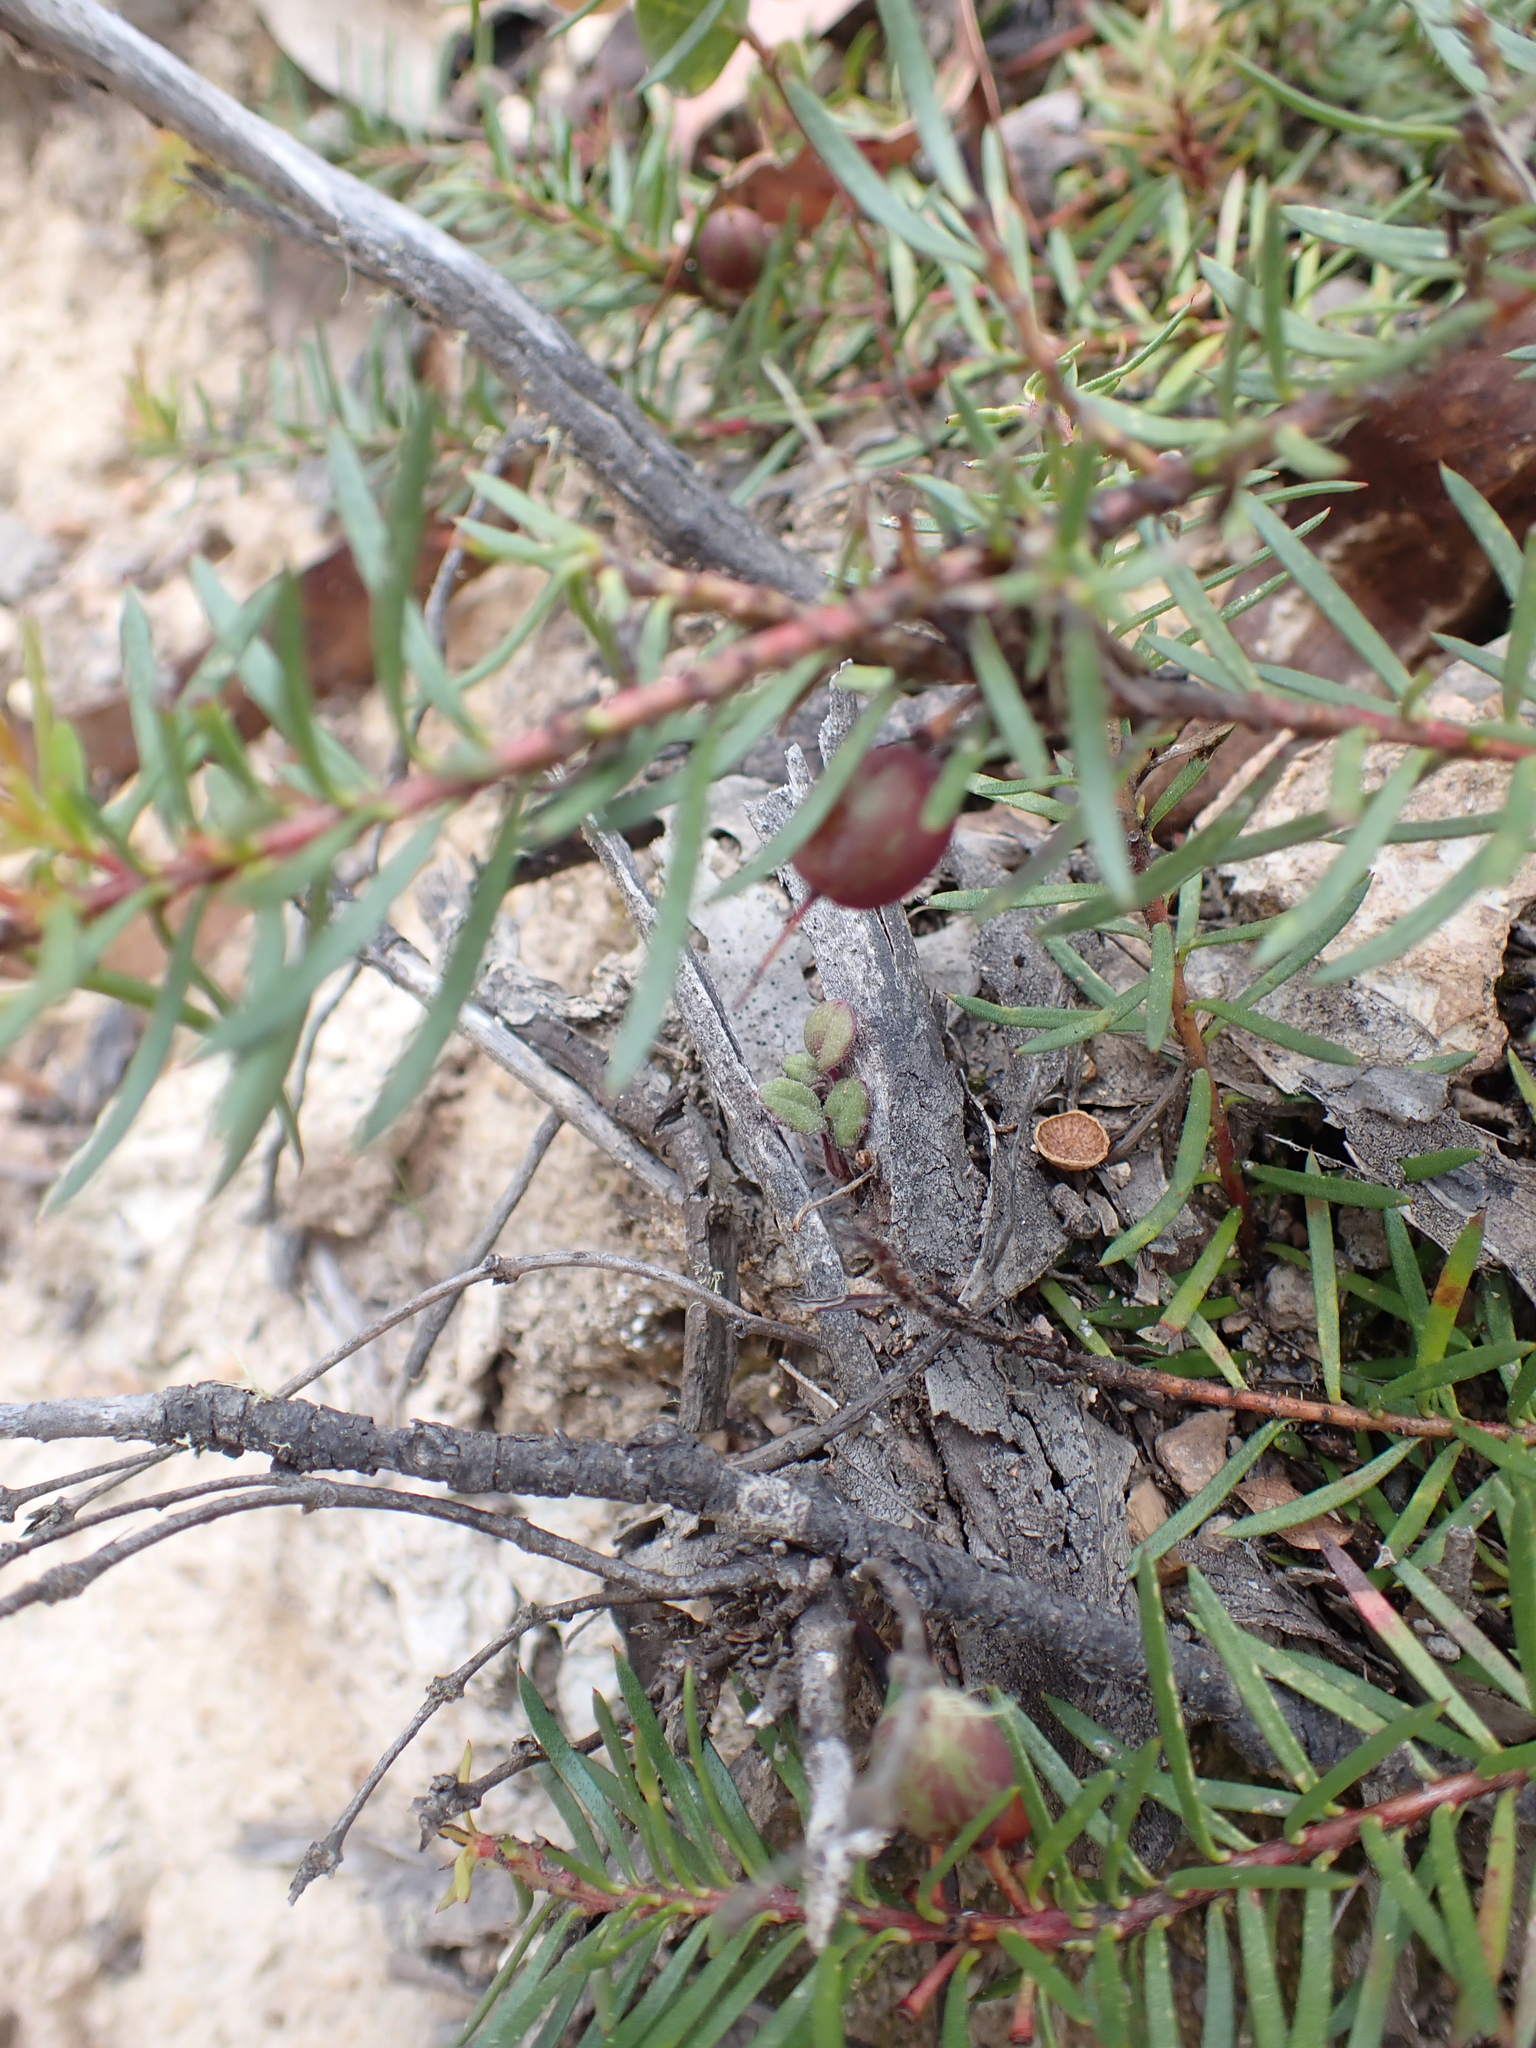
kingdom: Plantae
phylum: Tracheophyta
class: Magnoliopsida
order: Proteales
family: Proteaceae
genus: Persoonia
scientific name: Persoonia chamaepeuce
